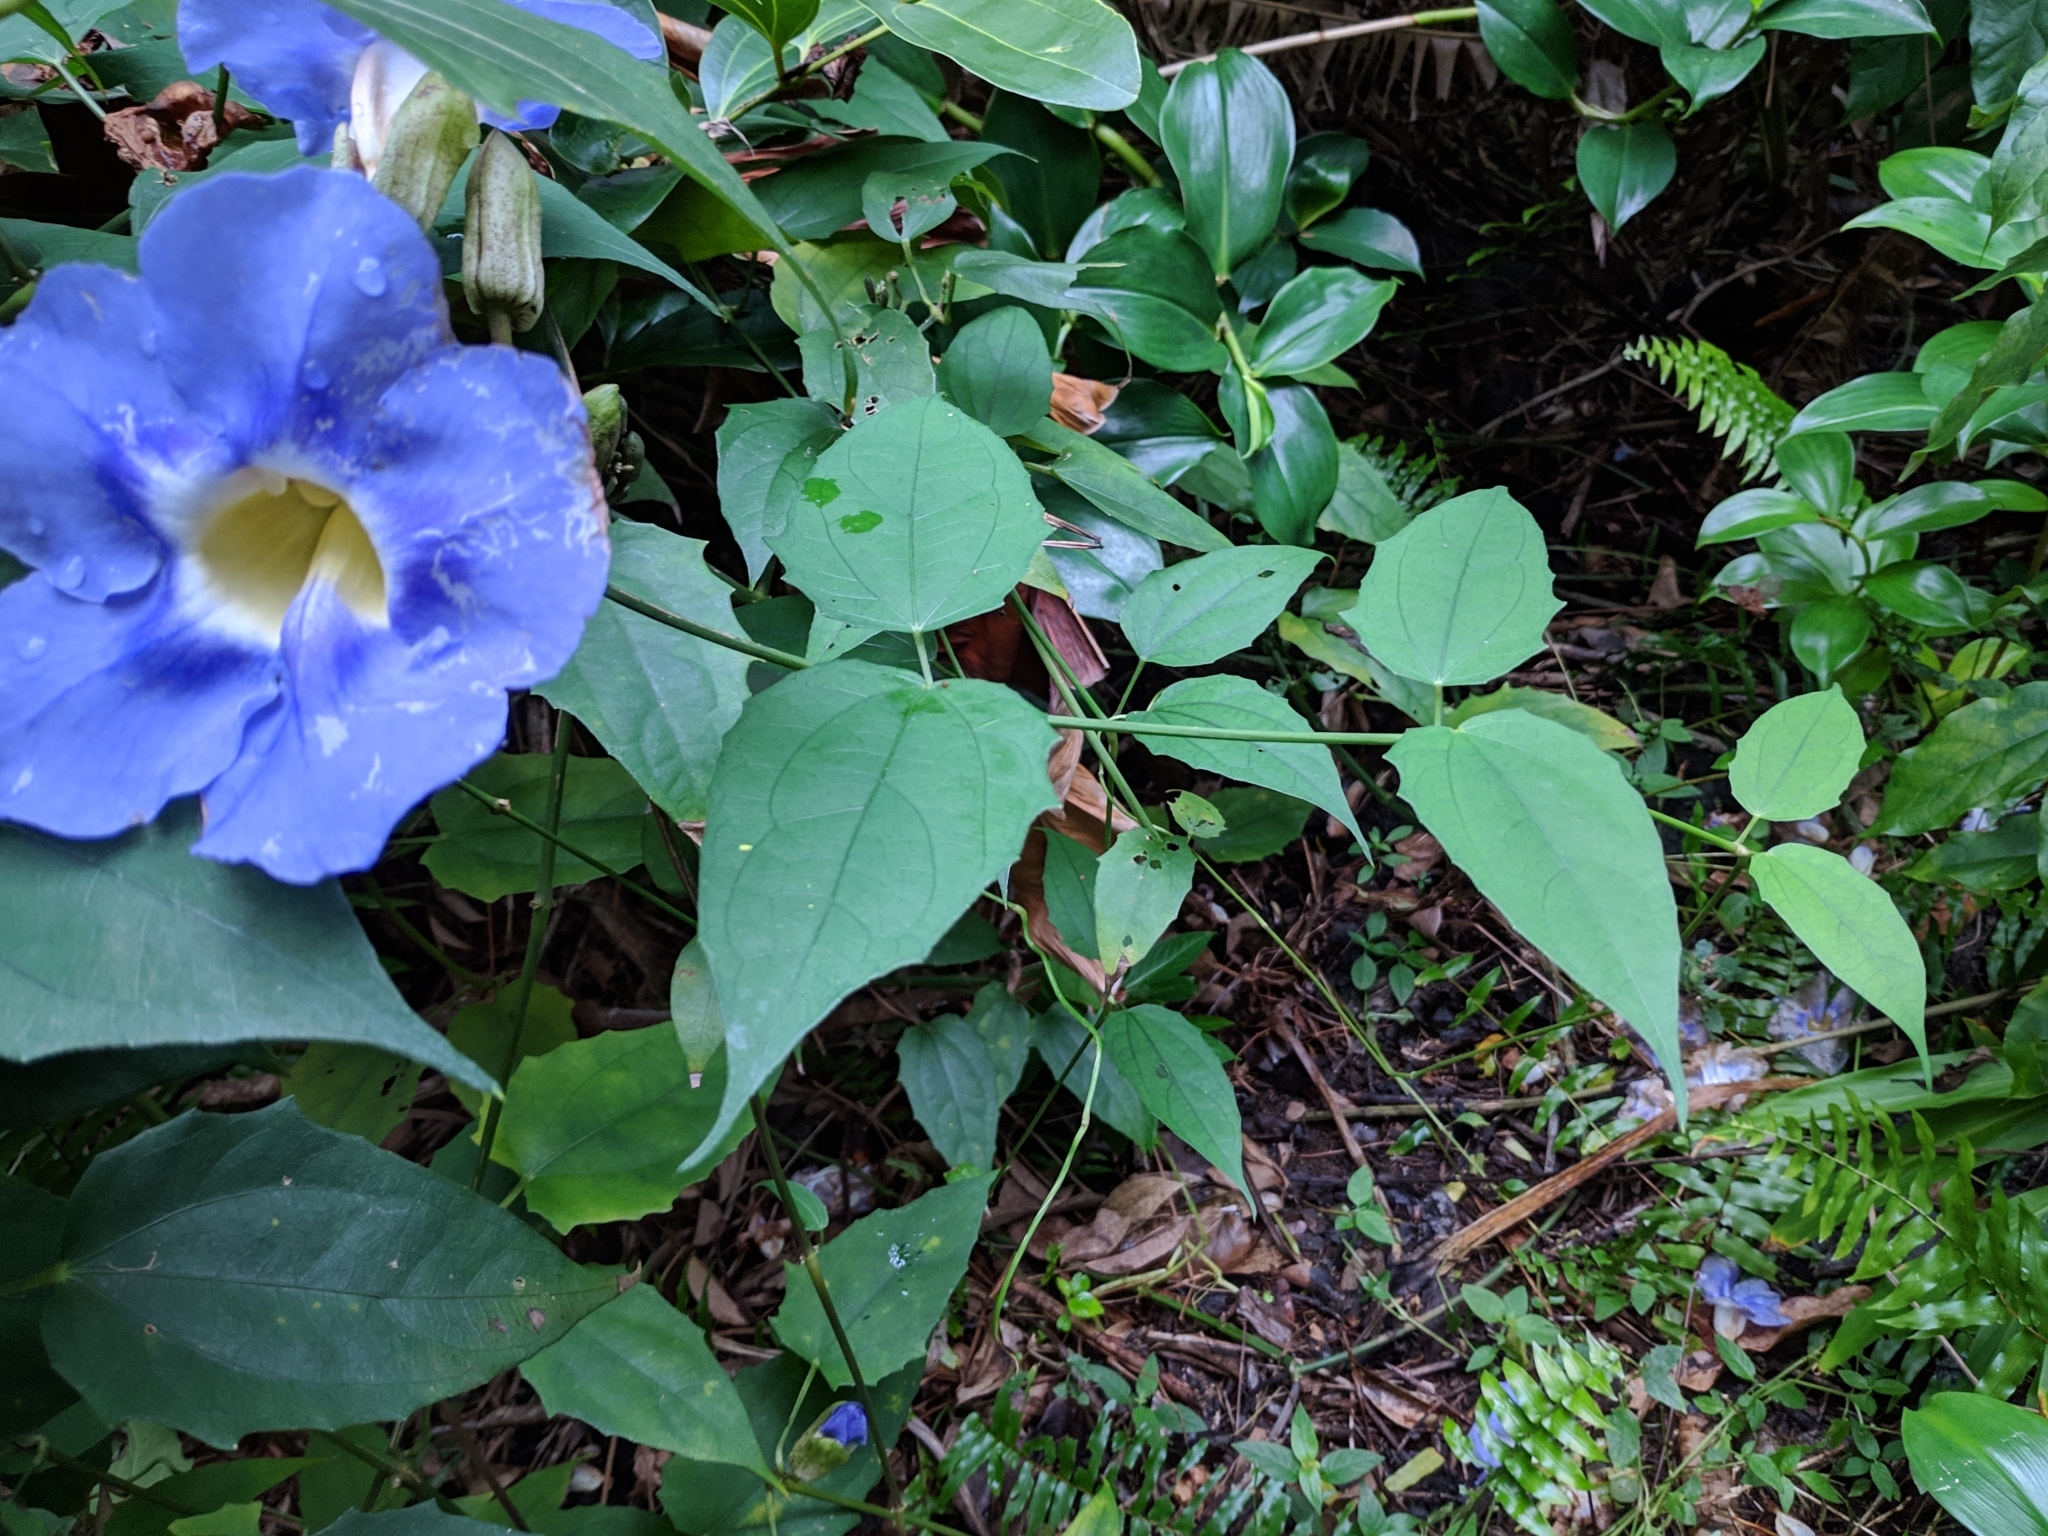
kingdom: Plantae
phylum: Tracheophyta
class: Magnoliopsida
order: Lamiales
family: Acanthaceae
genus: Thunbergia
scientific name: Thunbergia grandiflora
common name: Bengal trumpet
